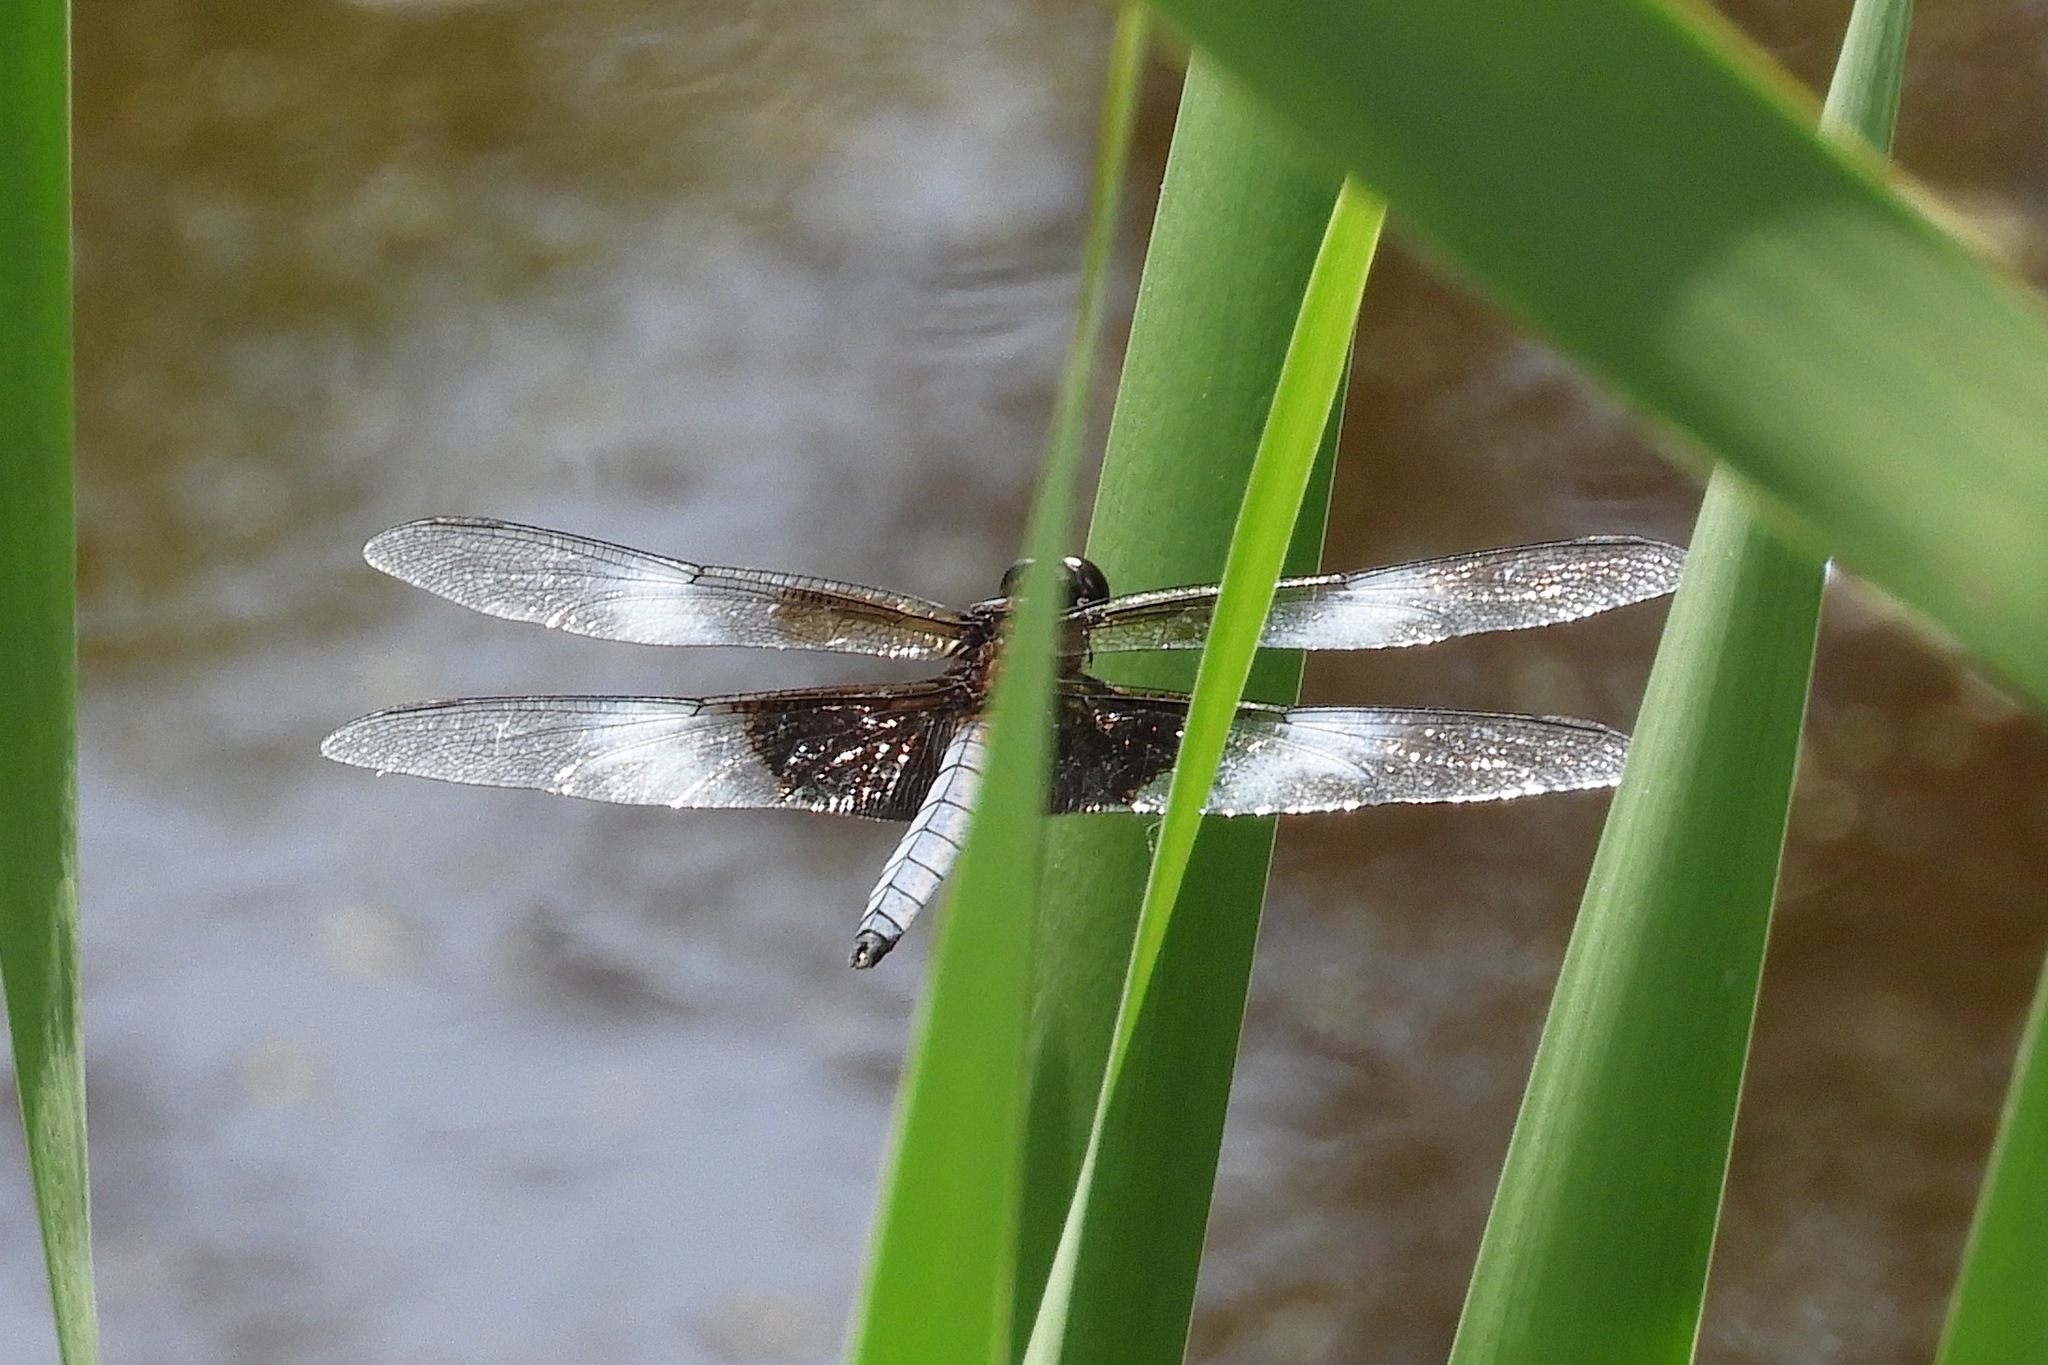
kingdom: Animalia
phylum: Arthropoda
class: Insecta
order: Odonata
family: Libellulidae
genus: Libellula
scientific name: Libellula luctuosa
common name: Widow skimmer
